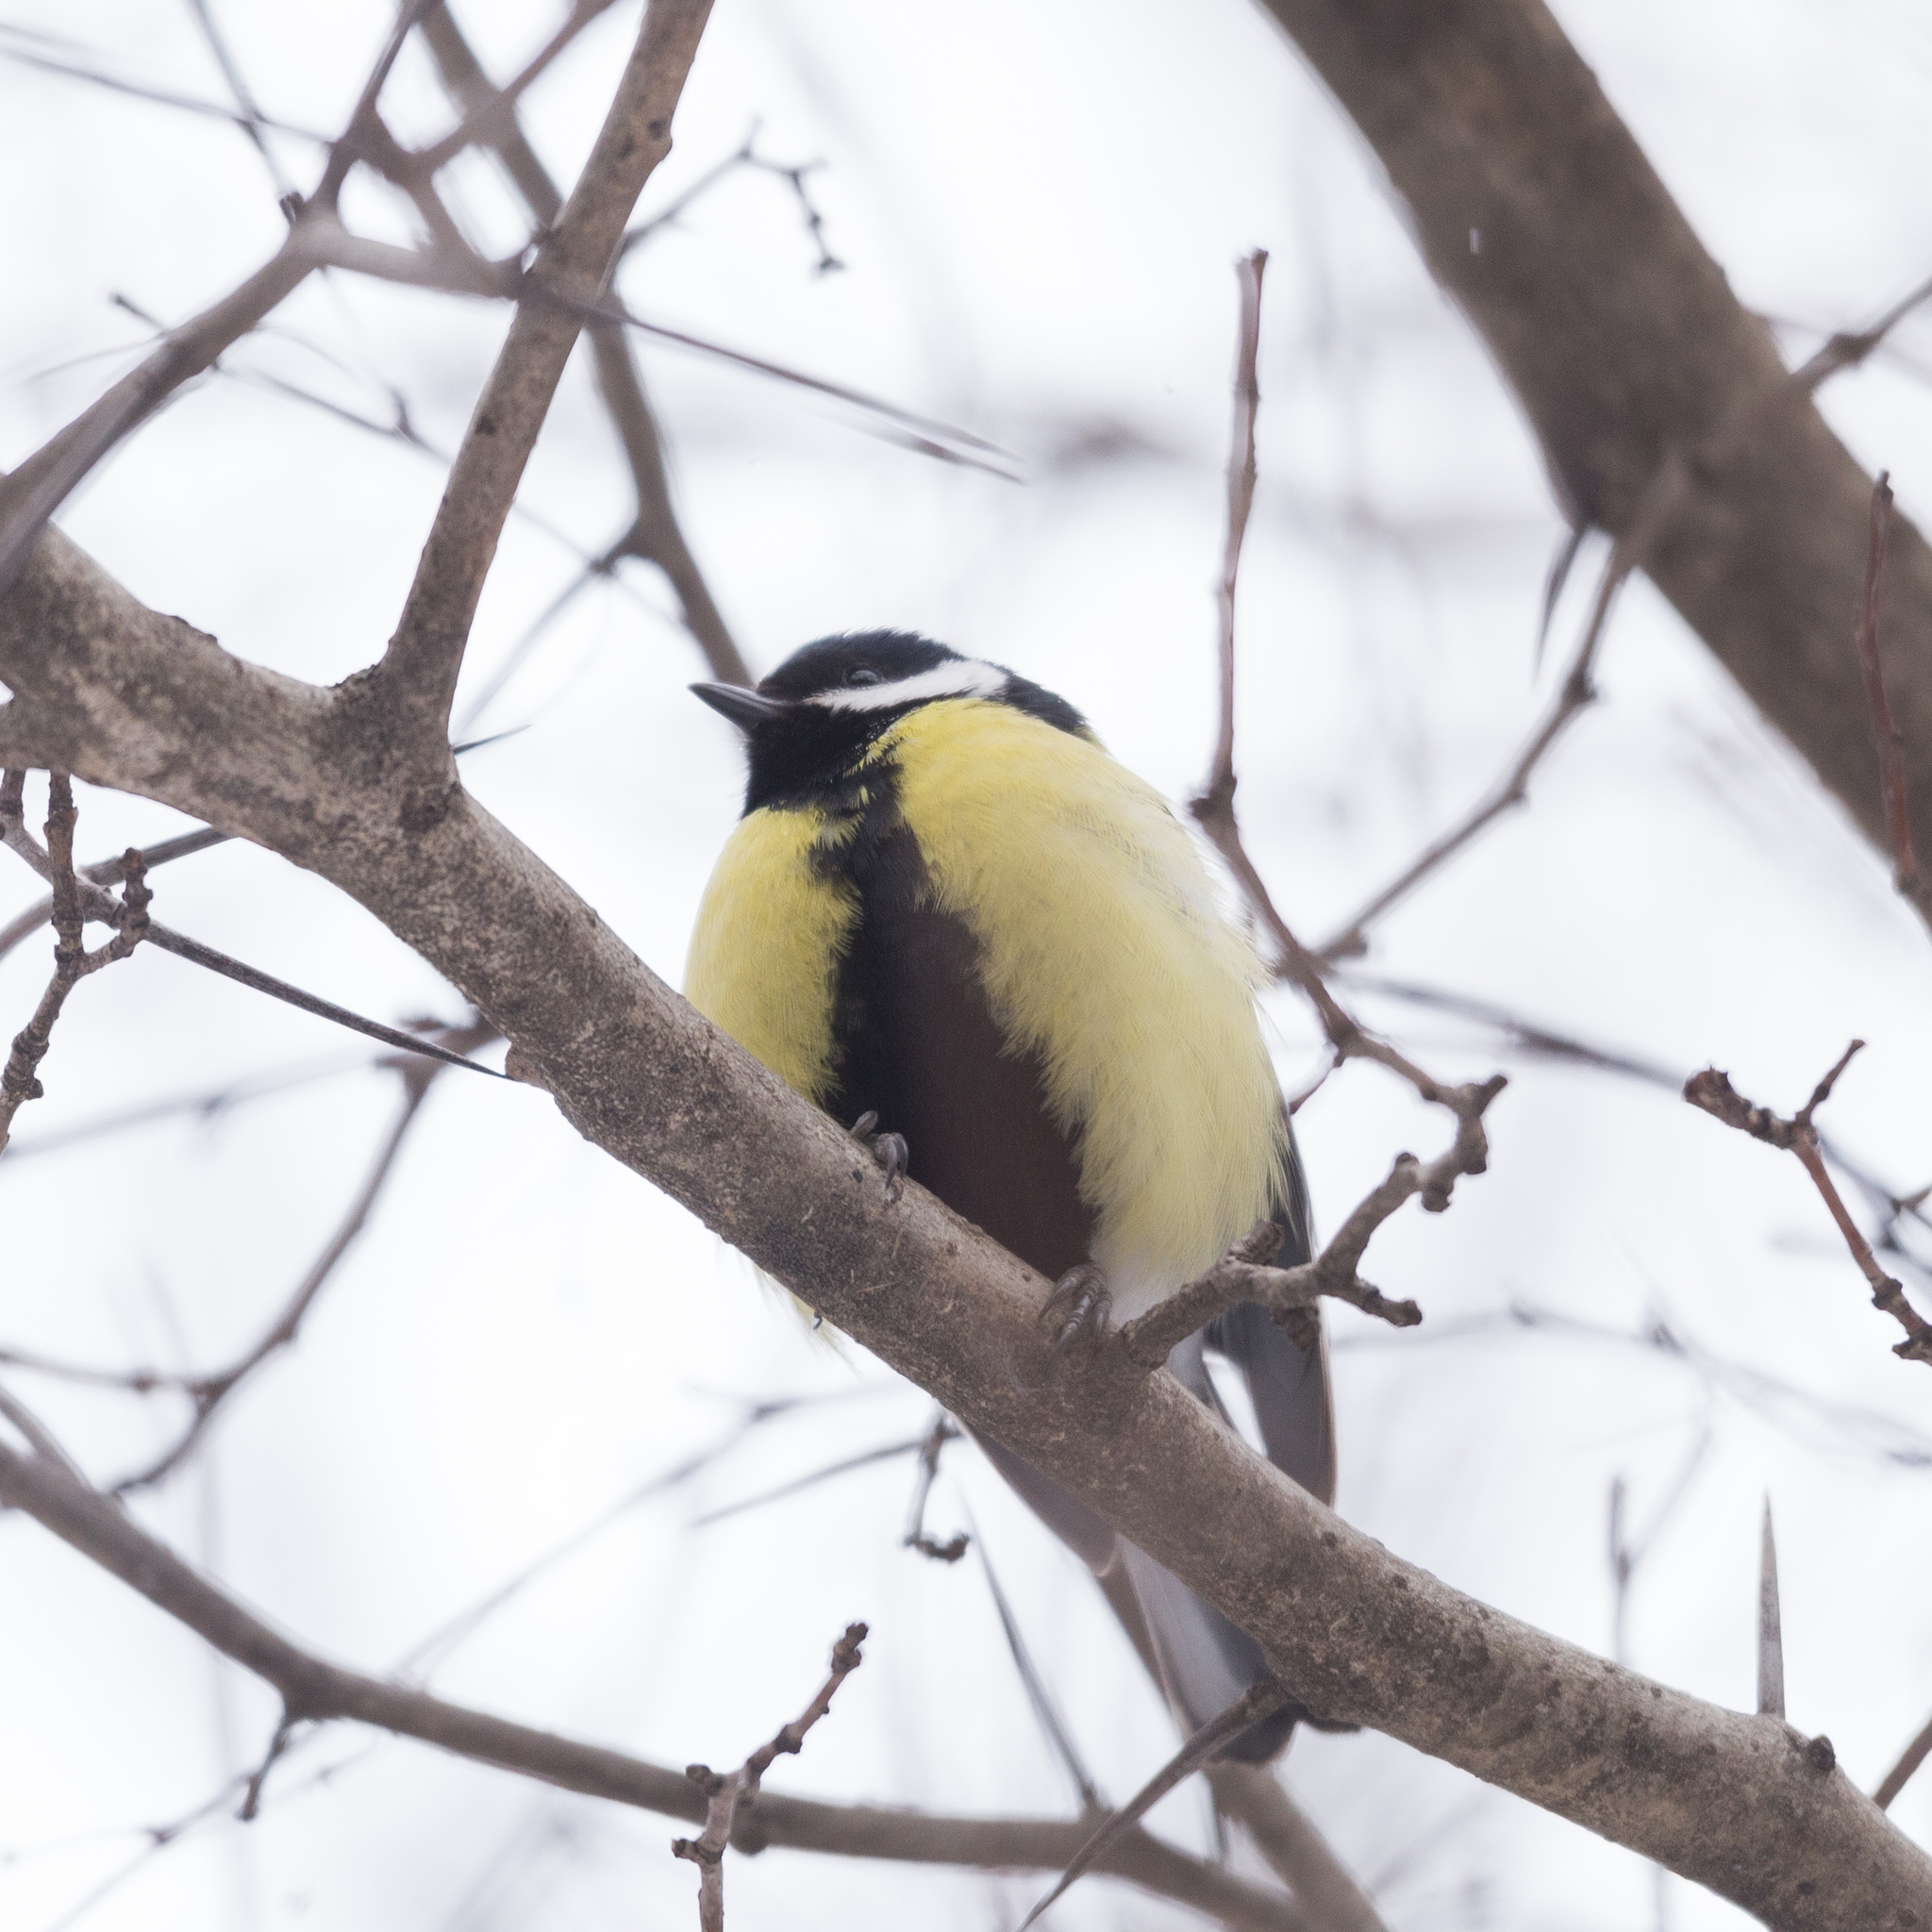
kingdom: Animalia
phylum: Chordata
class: Aves
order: Passeriformes
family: Paridae
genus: Parus
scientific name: Parus major
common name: Great tit
